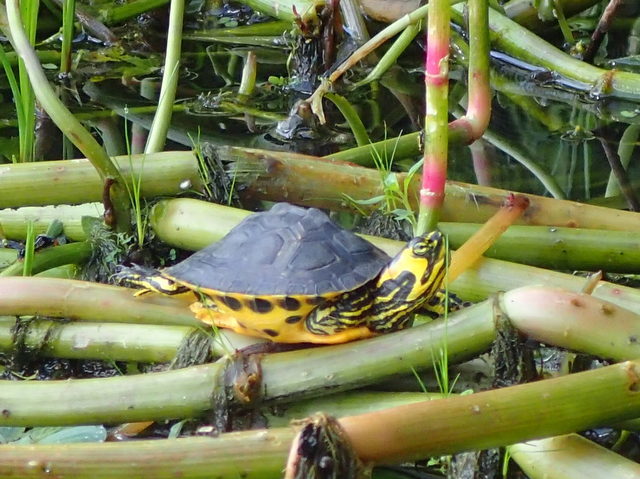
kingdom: Animalia
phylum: Chordata
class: Testudines
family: Emydidae
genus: Trachemys
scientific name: Trachemys scripta
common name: Slider
